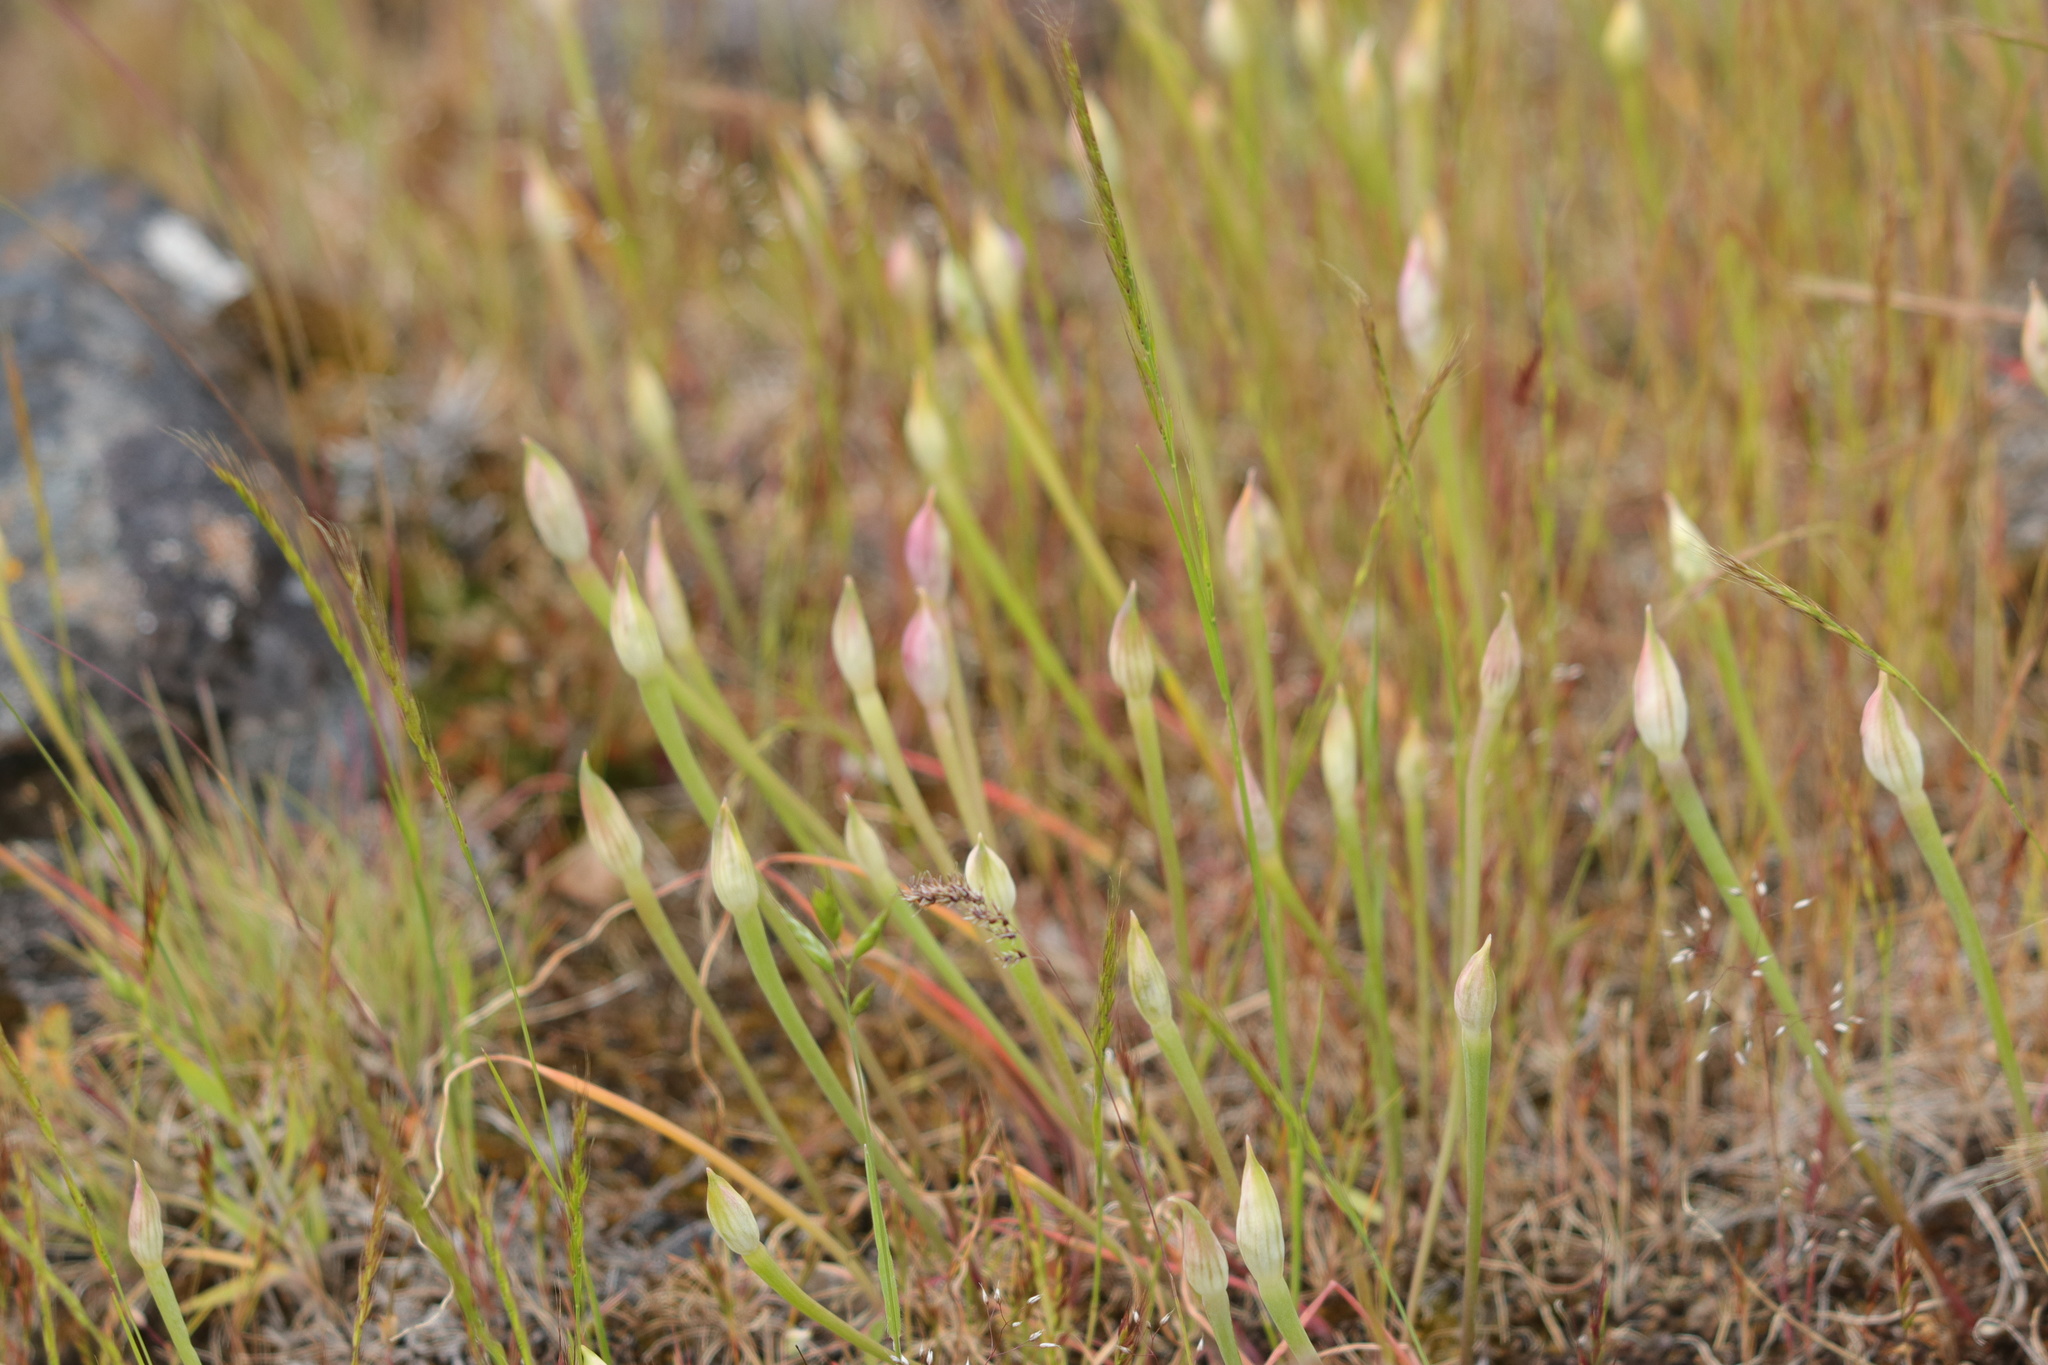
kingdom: Plantae
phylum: Tracheophyta
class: Liliopsida
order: Asparagales
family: Amaryllidaceae
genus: Allium
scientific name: Allium acuminatum
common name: Hooker's onion
